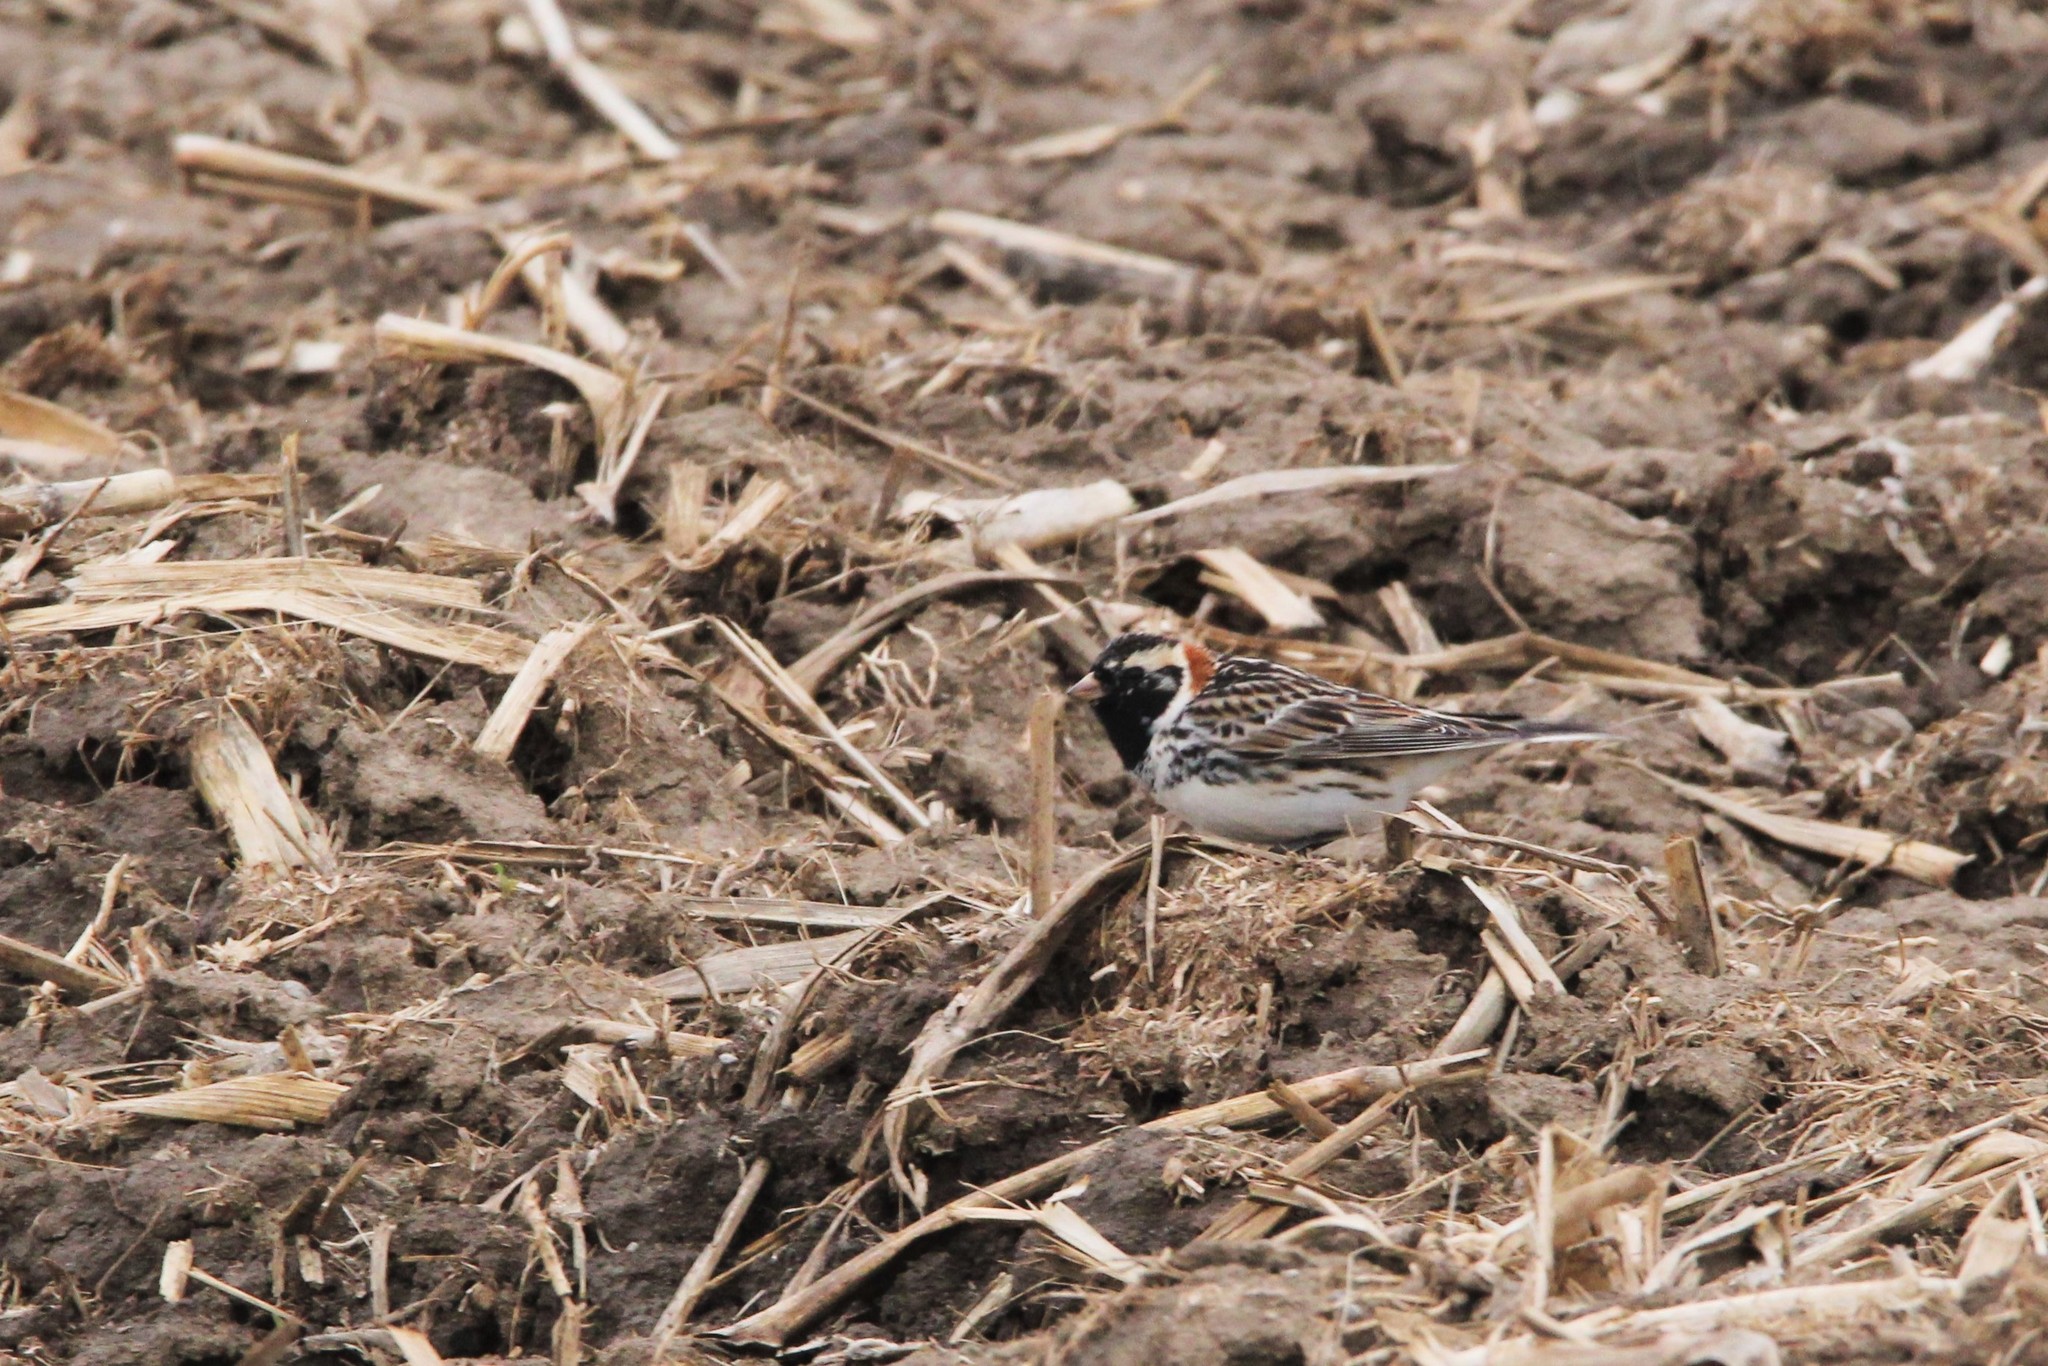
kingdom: Animalia
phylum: Chordata
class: Aves
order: Passeriformes
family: Calcariidae
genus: Calcarius
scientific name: Calcarius lapponicus
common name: Lapland longspur
